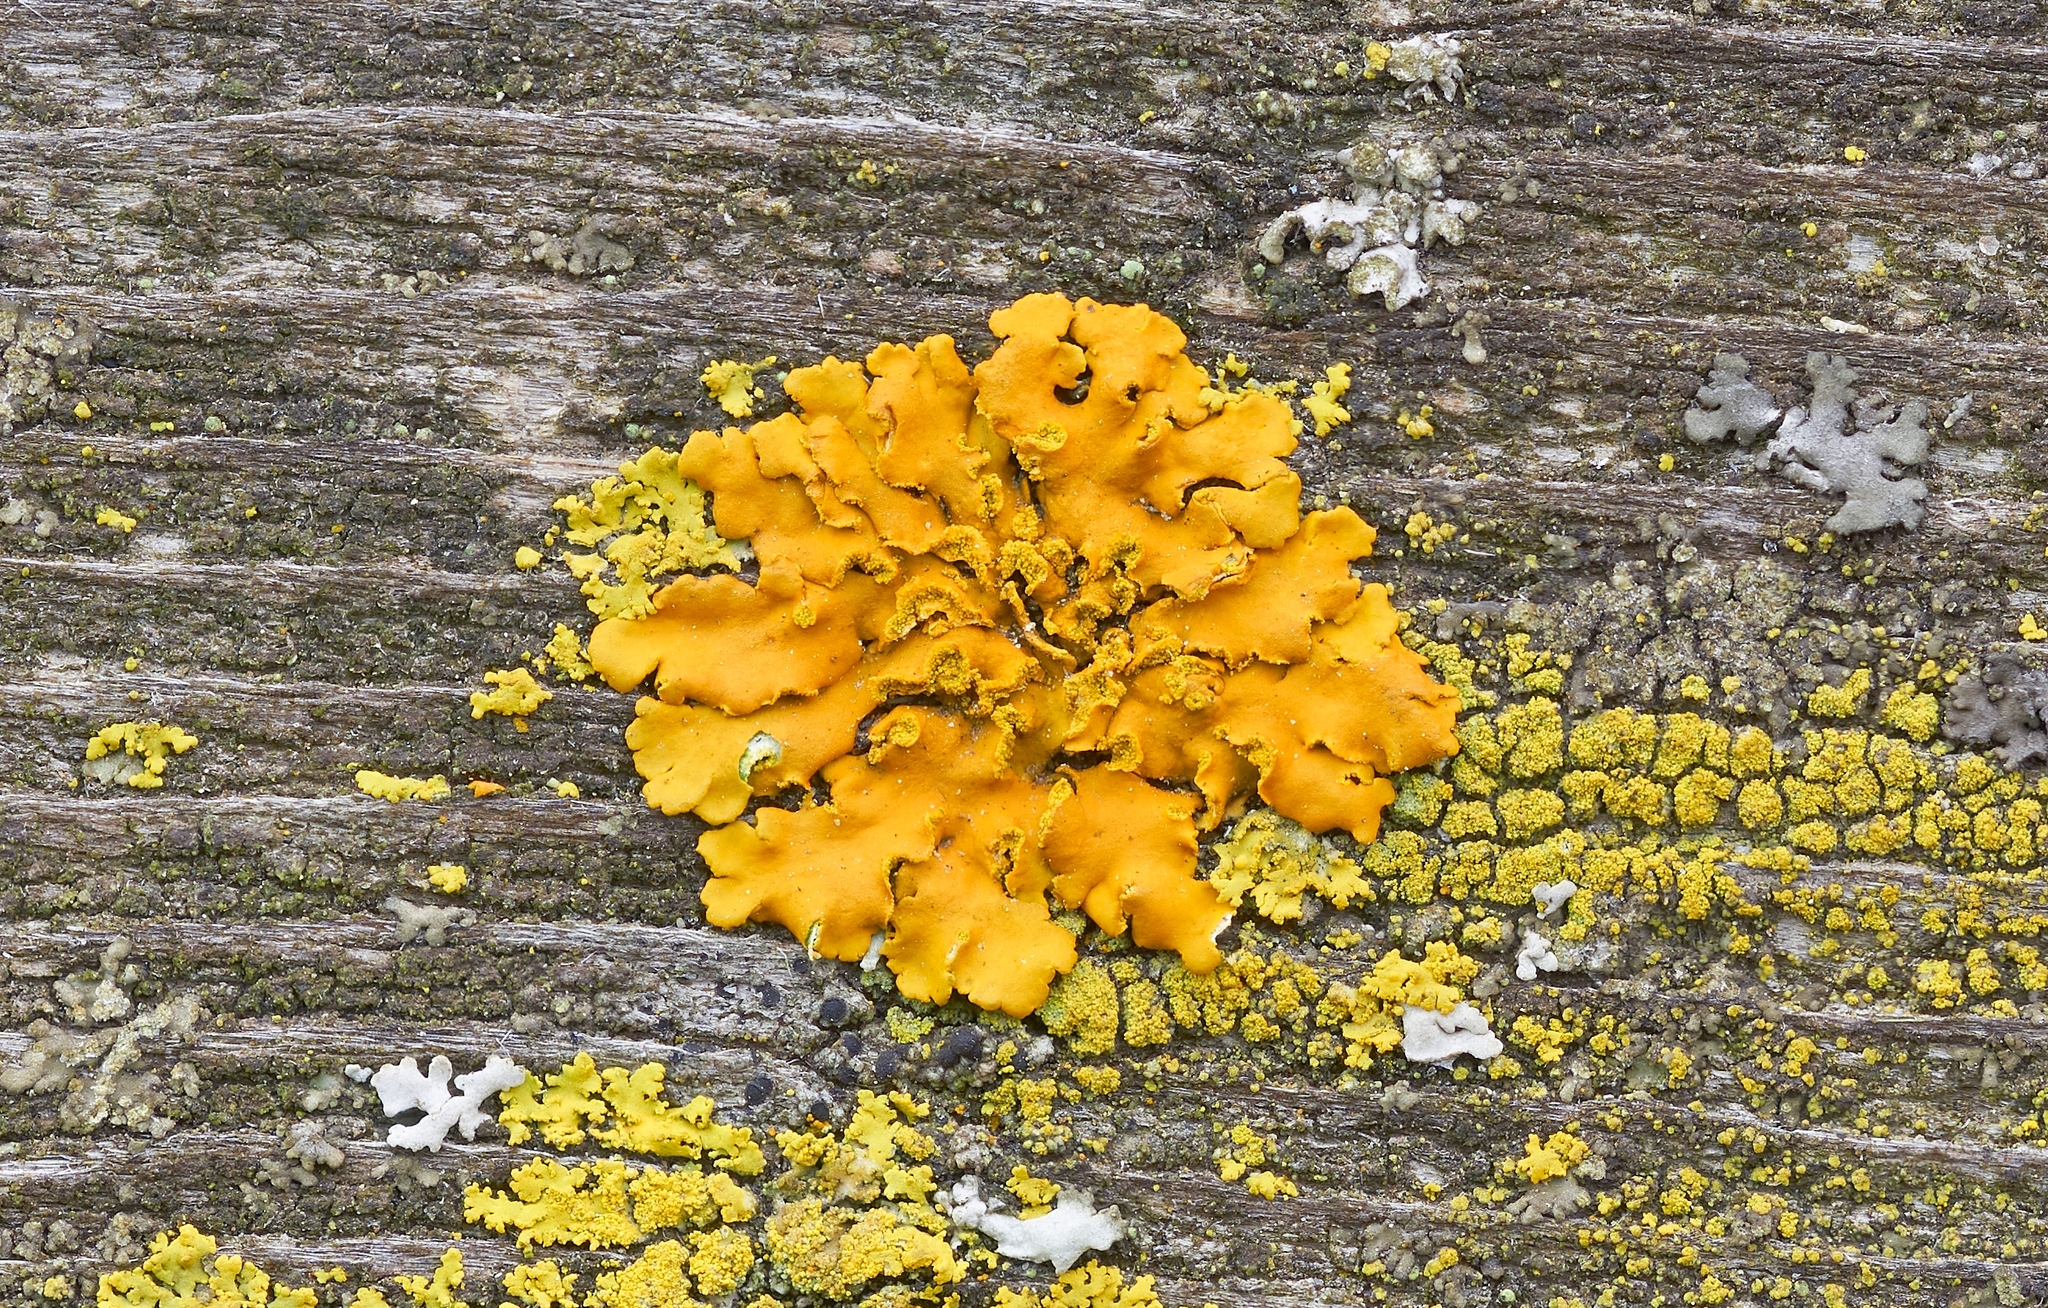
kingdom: Fungi
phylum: Ascomycota
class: Lecanoromycetes
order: Teloschistales
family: Teloschistaceae
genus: Oxneria
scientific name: Oxneria fallax
